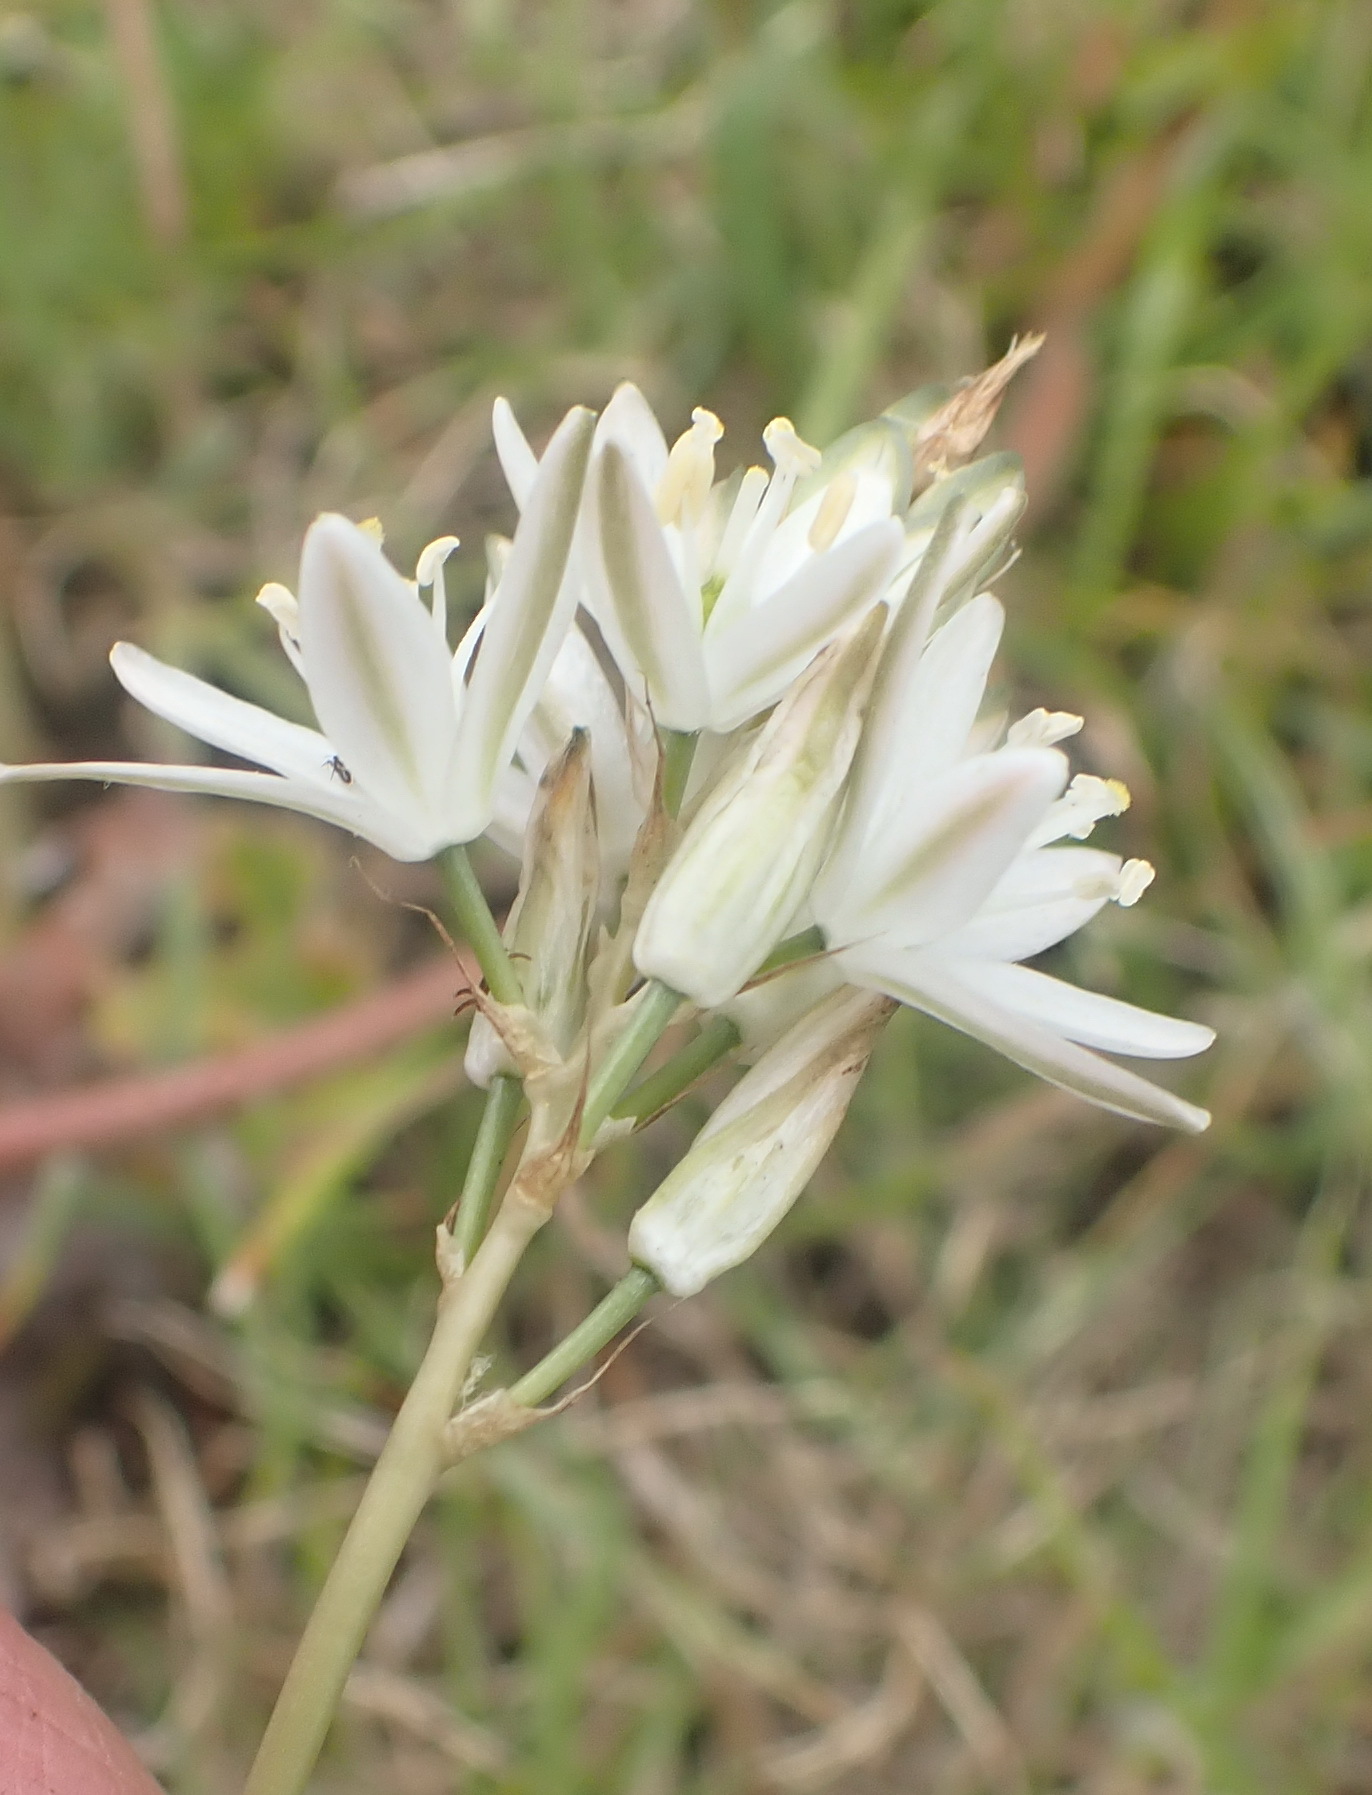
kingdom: Plantae
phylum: Tracheophyta
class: Liliopsida
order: Asparagales
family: Asparagaceae
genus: Ornithogalum
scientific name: Ornithogalum graminifolium
